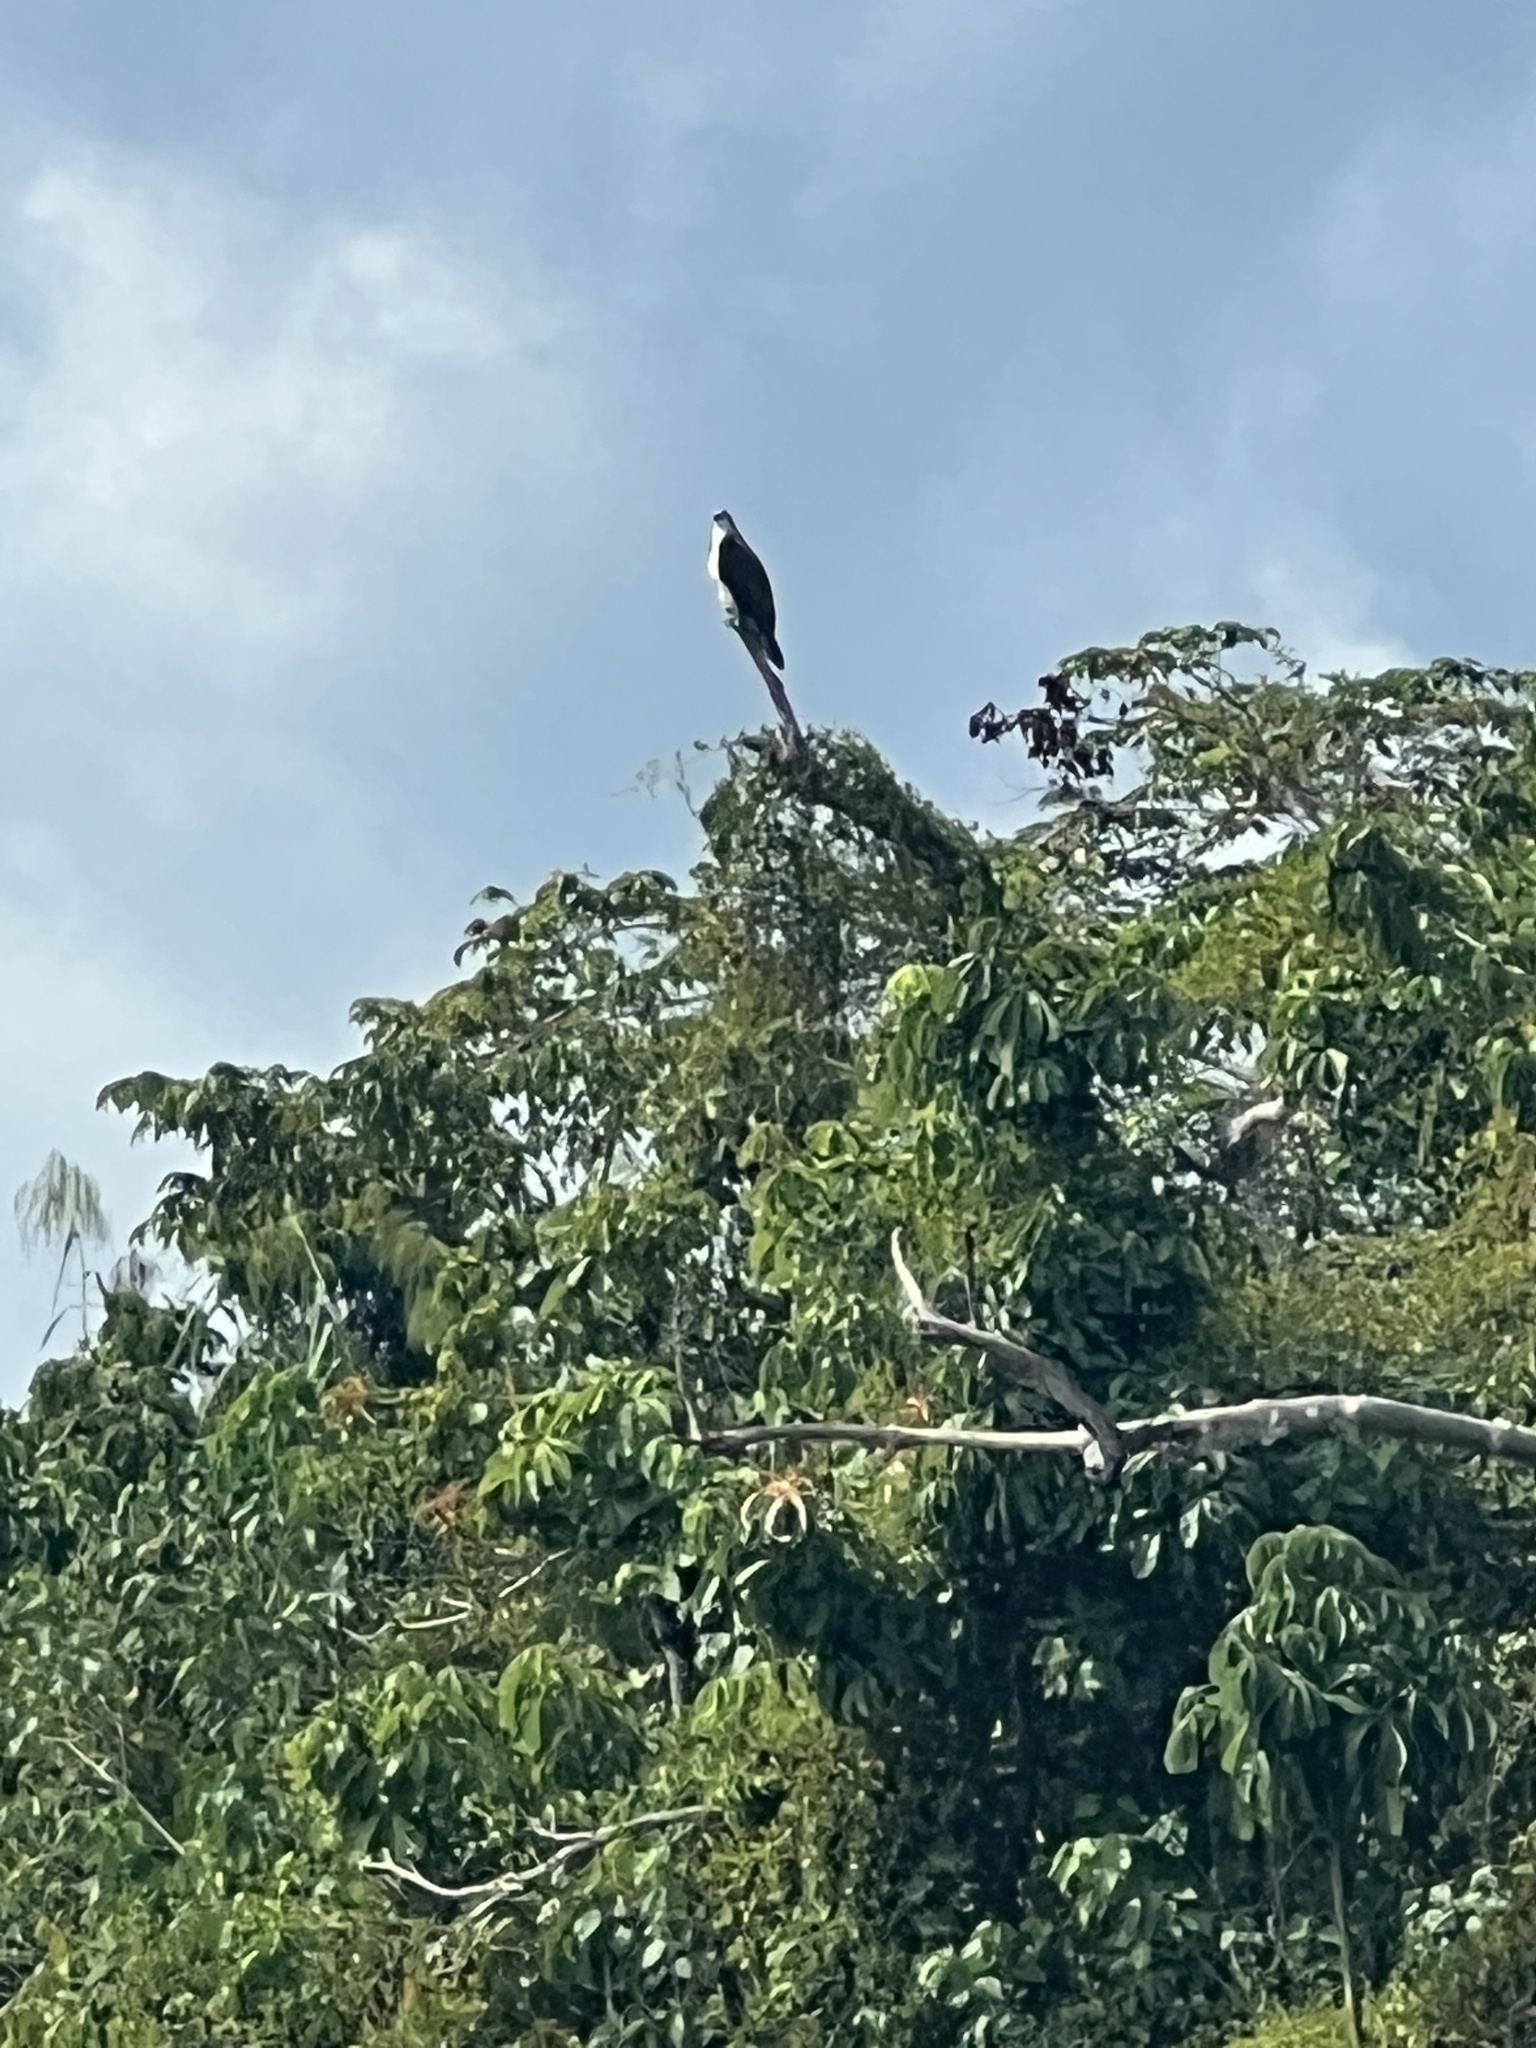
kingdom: Animalia
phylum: Chordata
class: Aves
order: Accipitriformes
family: Pandionidae
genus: Pandion
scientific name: Pandion haliaetus
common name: Osprey
